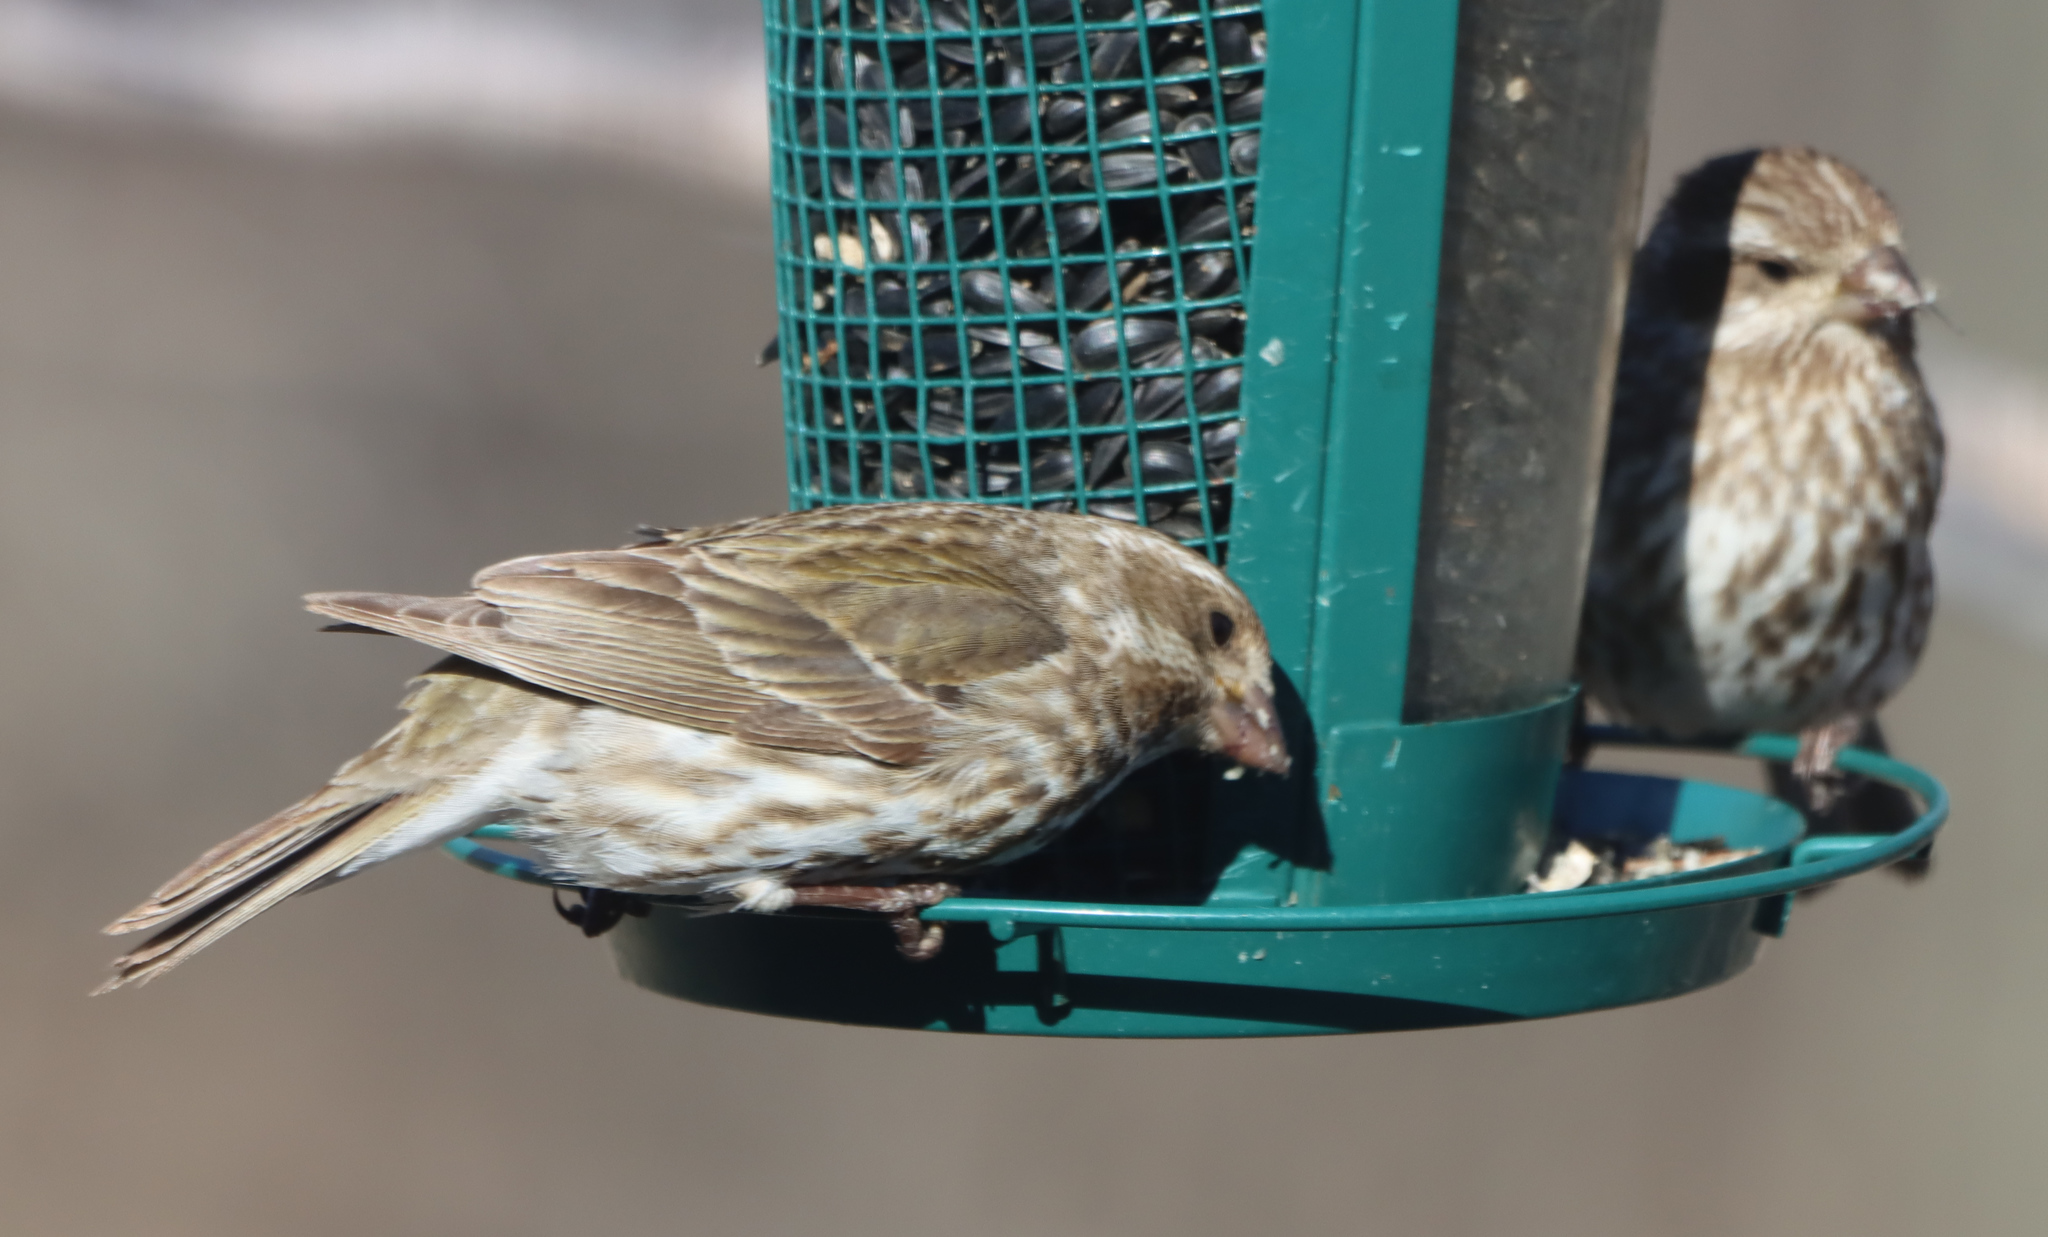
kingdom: Animalia
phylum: Chordata
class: Aves
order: Passeriformes
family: Fringillidae
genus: Haemorhous
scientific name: Haemorhous purpureus
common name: Purple finch
